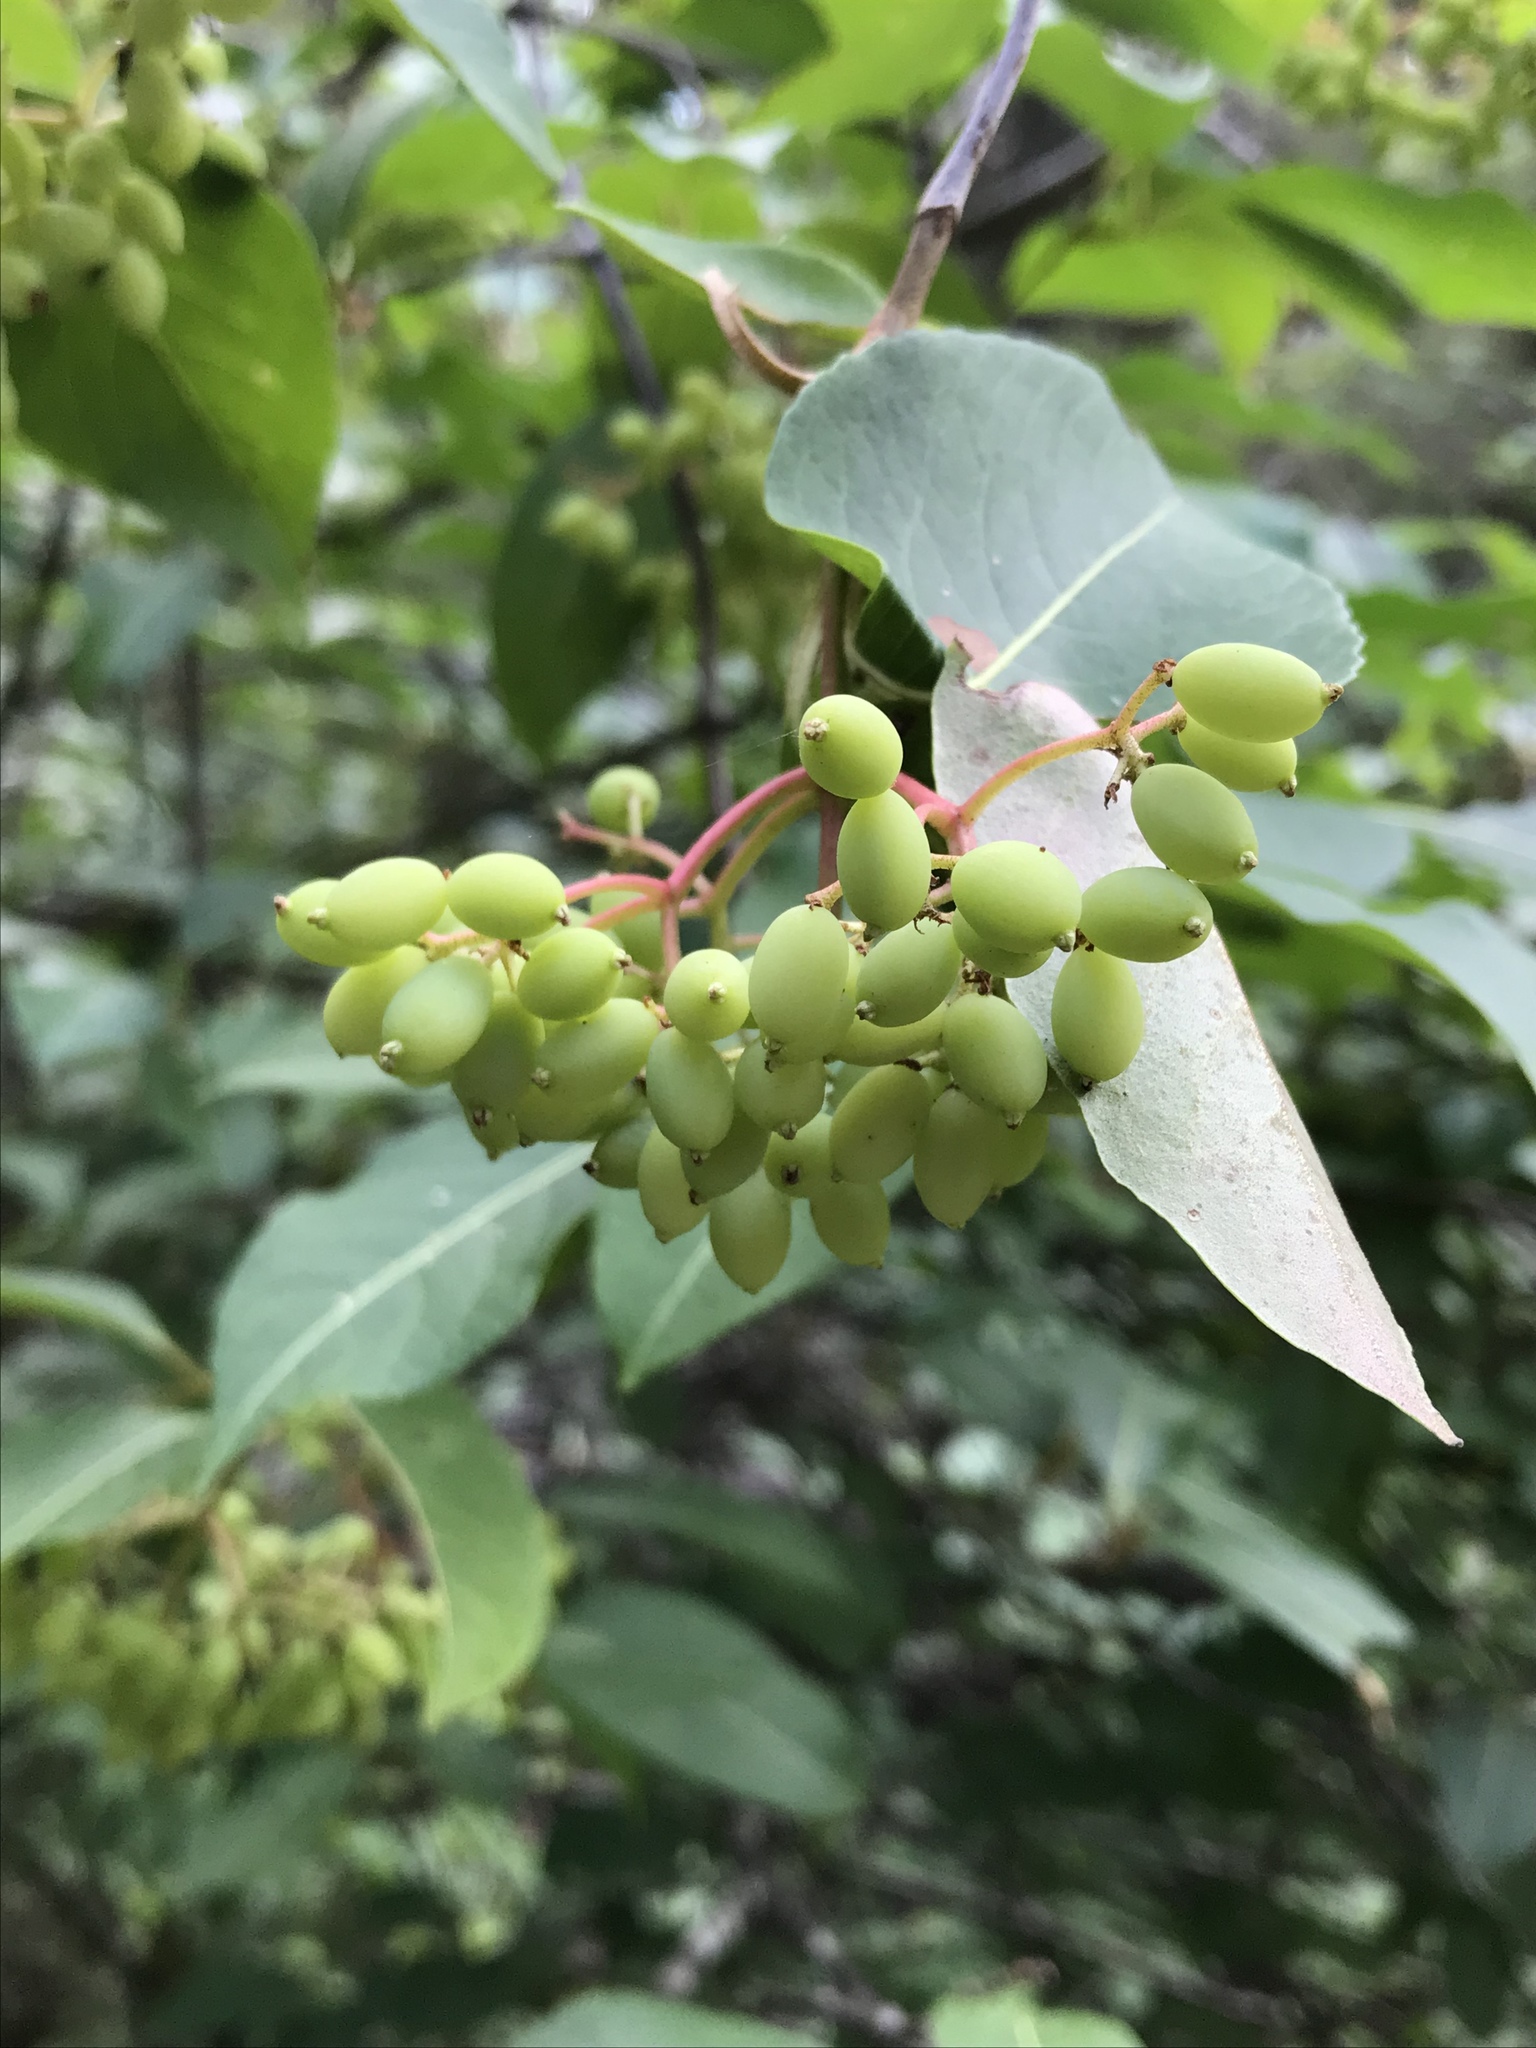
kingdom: Plantae
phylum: Tracheophyta
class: Magnoliopsida
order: Dipsacales
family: Viburnaceae
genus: Viburnum
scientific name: Viburnum cassinoides
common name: Swamp haw
